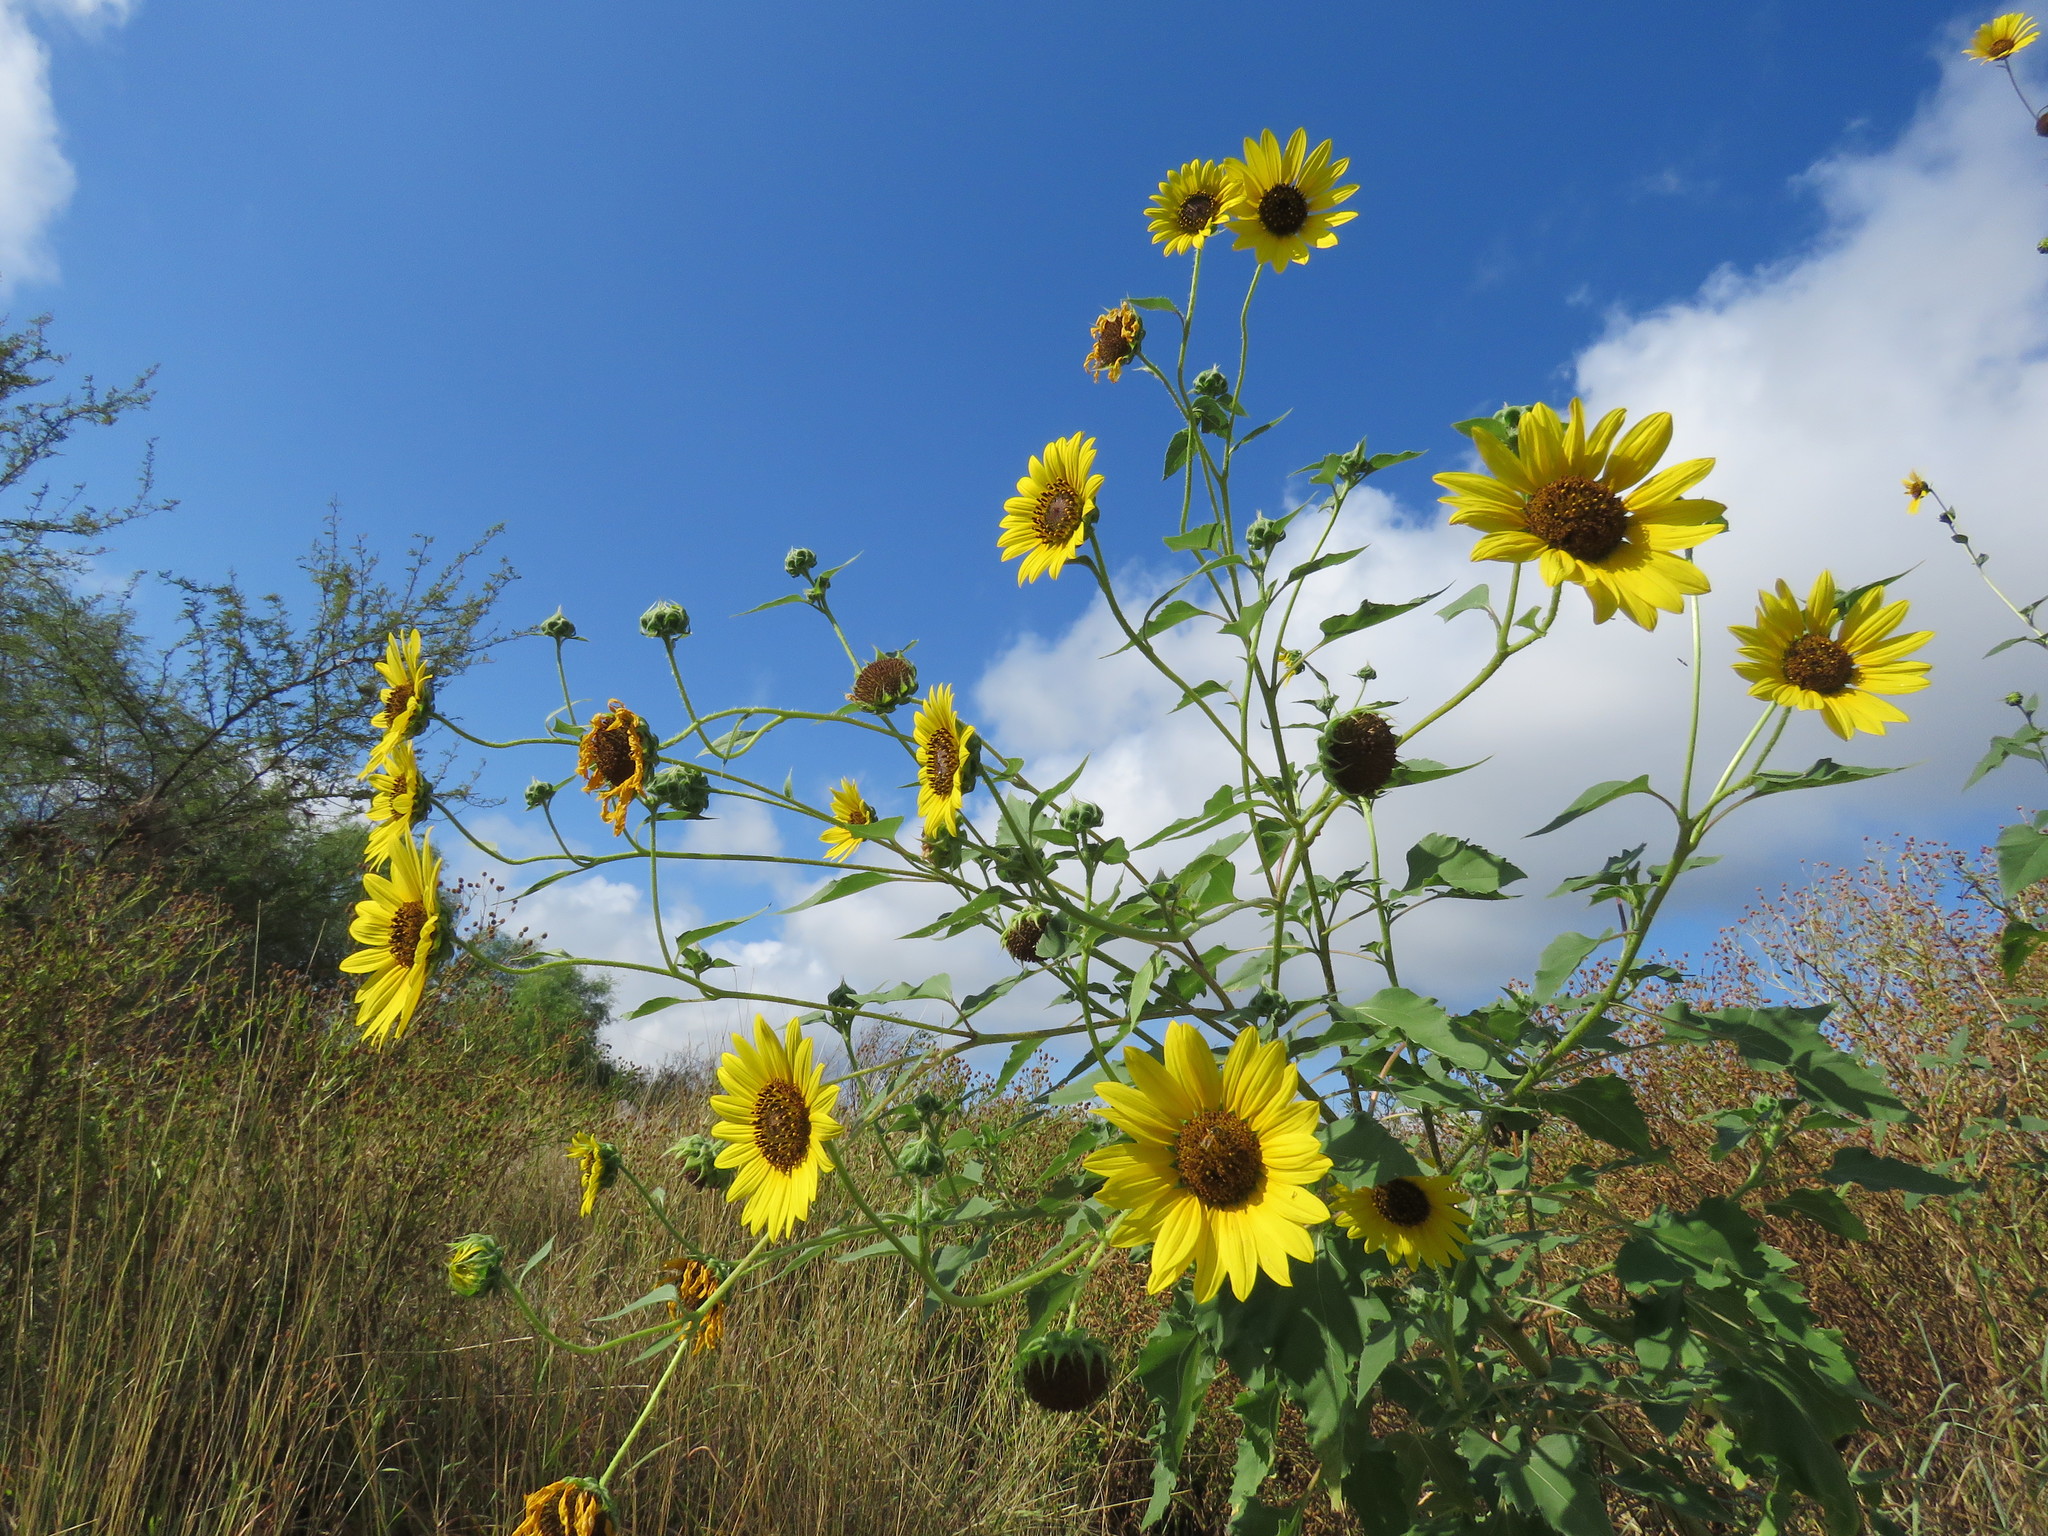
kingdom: Plantae
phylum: Tracheophyta
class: Magnoliopsida
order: Asterales
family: Asteraceae
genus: Helianthus
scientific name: Helianthus annuus
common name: Sunflower
